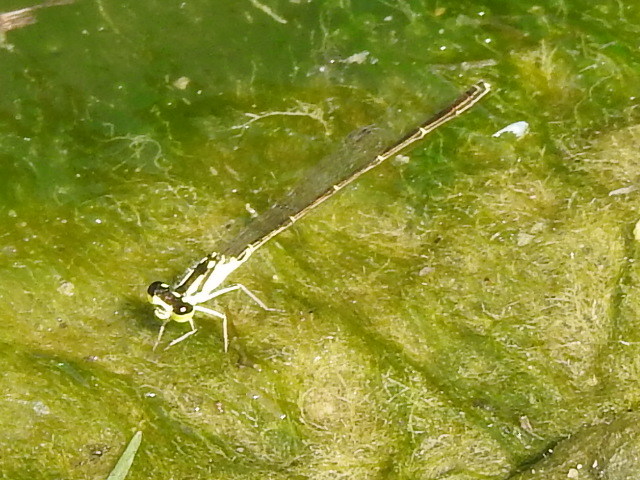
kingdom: Animalia
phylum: Arthropoda
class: Insecta
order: Odonata
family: Coenagrionidae
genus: Ischnura
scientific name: Ischnura posita
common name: Fragile forktail
